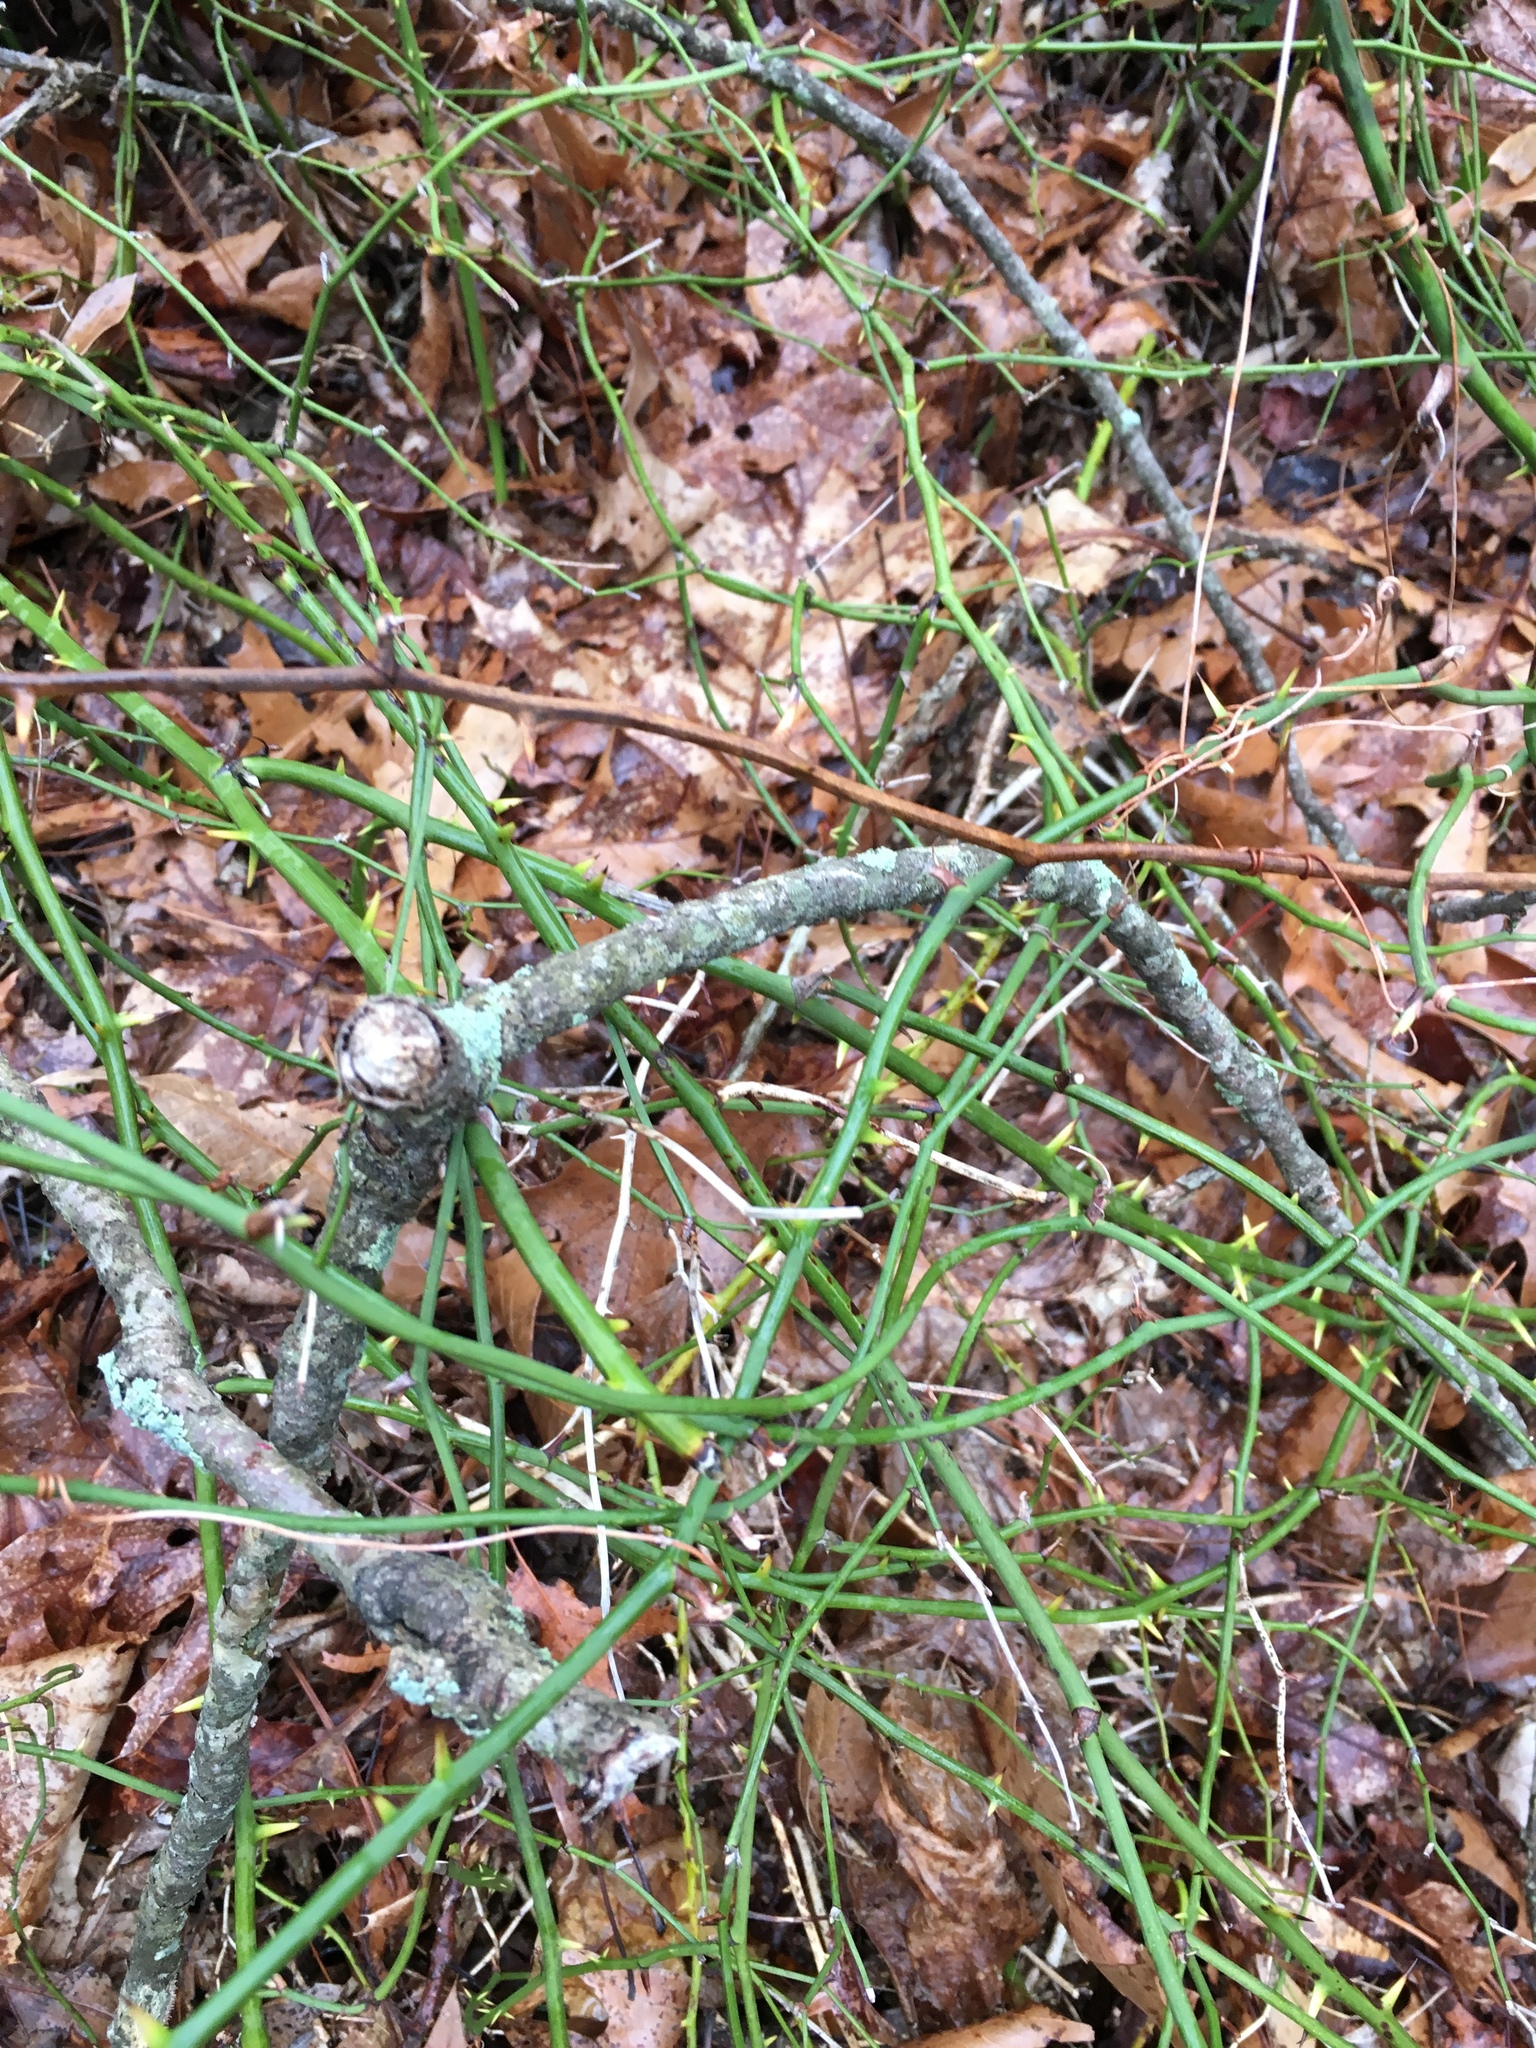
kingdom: Plantae
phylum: Tracheophyta
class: Liliopsida
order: Liliales
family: Smilacaceae
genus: Smilax
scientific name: Smilax rotundifolia
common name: Bullbriar
